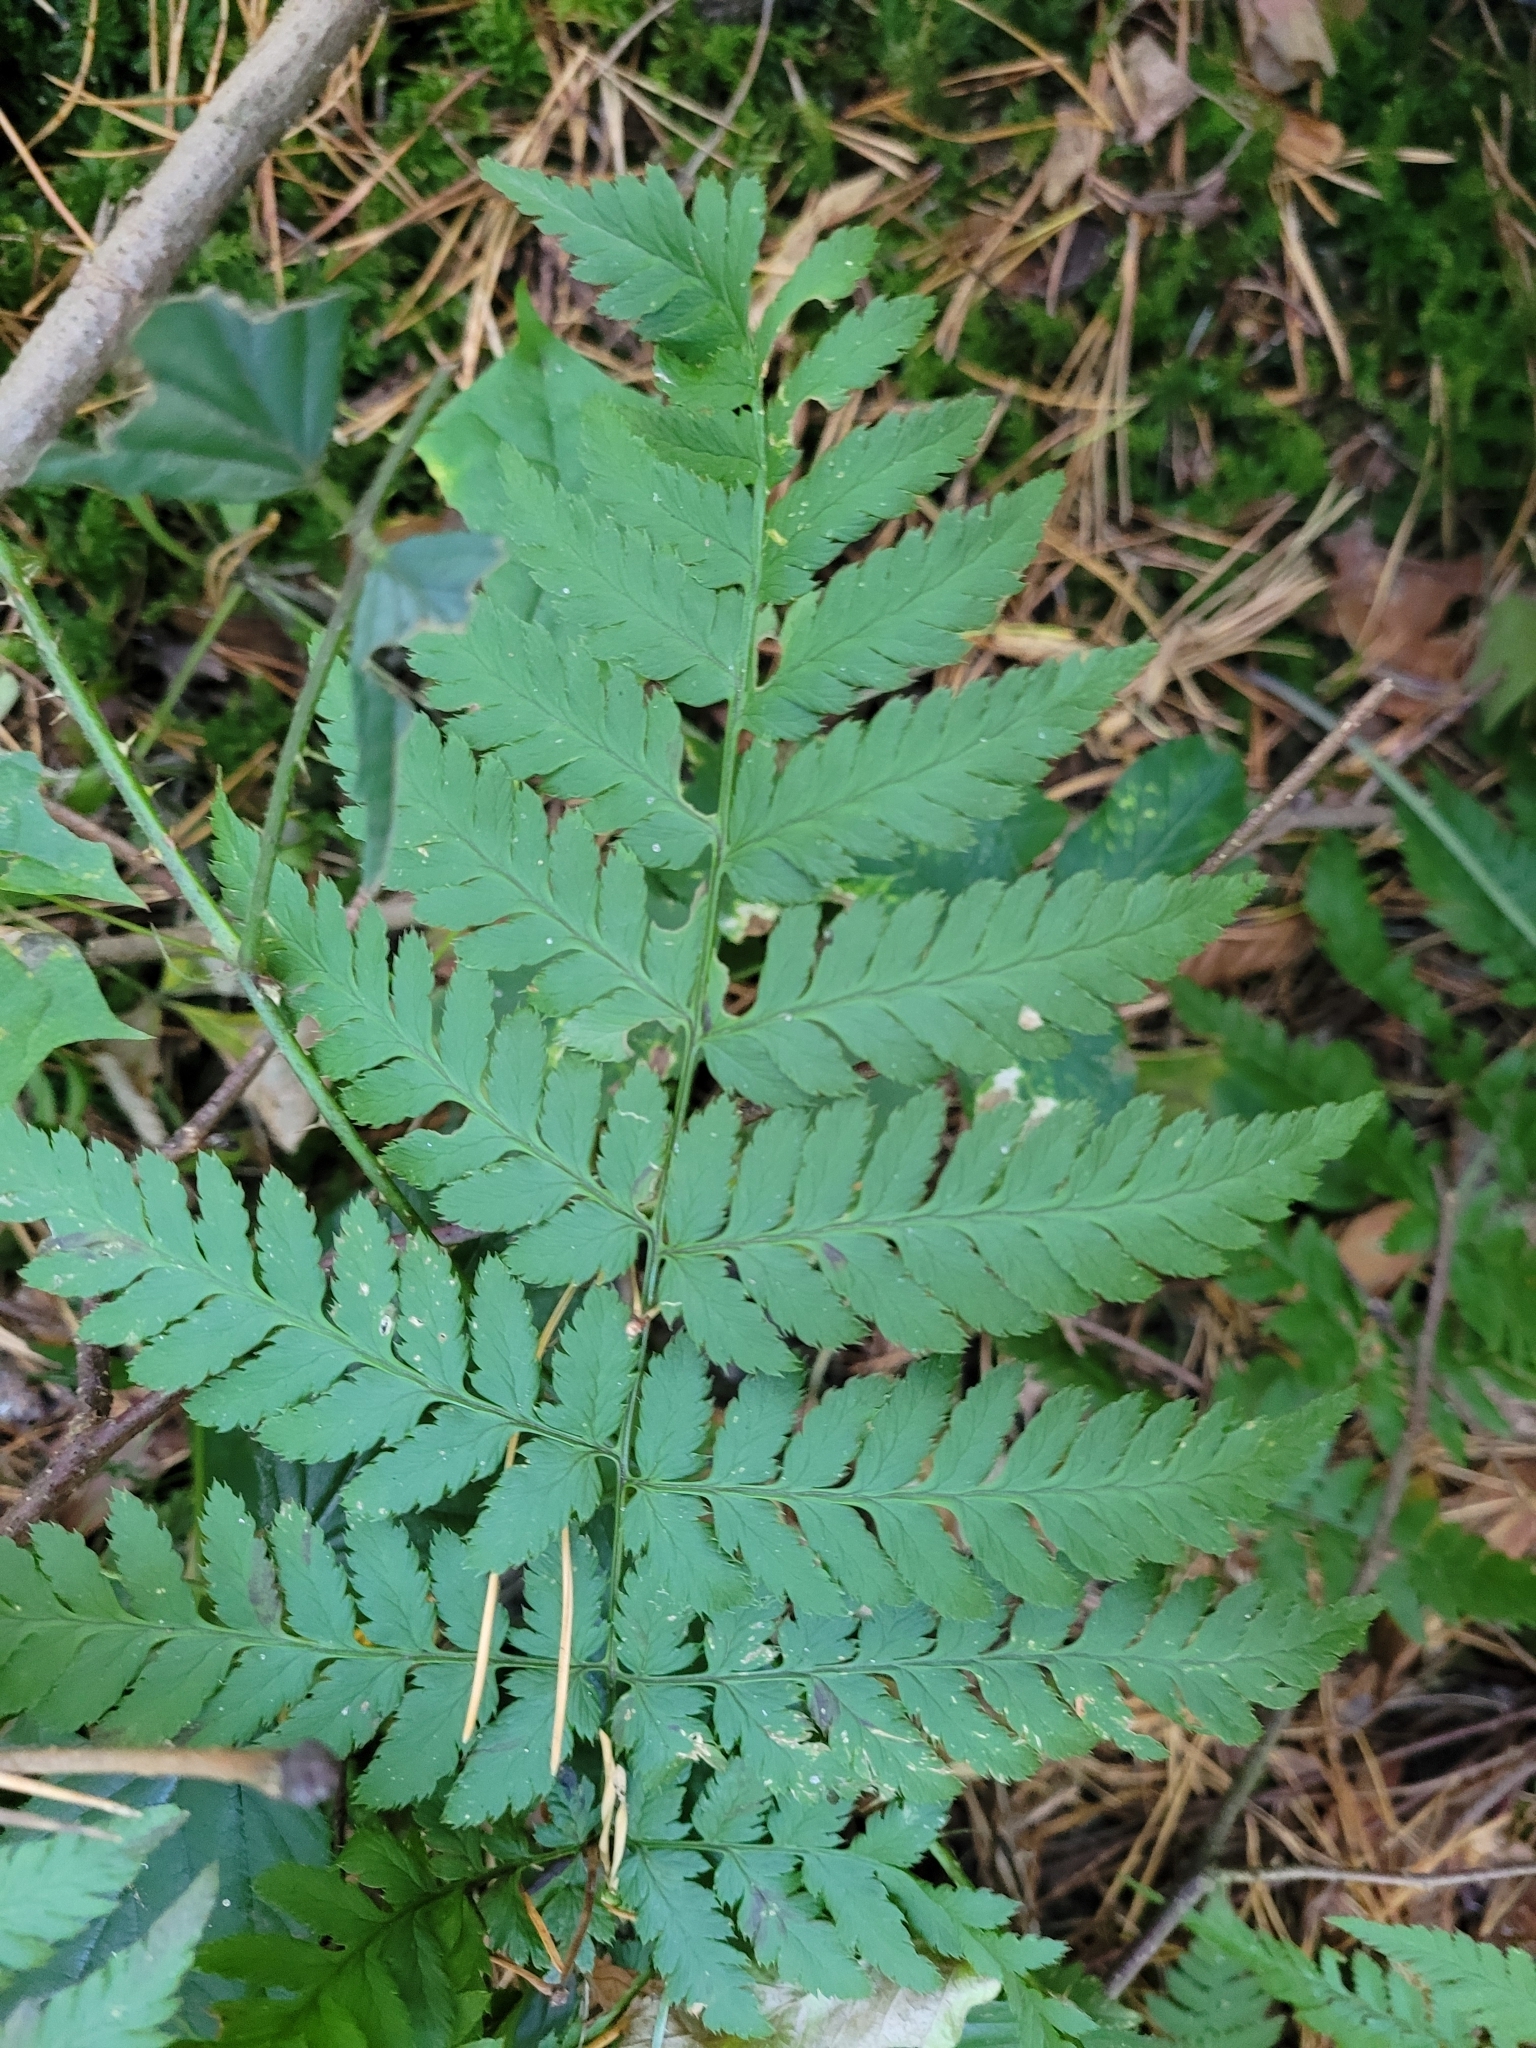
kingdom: Plantae
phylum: Tracheophyta
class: Polypodiopsida
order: Polypodiales
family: Dryopteridaceae
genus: Dryopteris
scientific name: Dryopteris carthusiana
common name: Narrow buckler-fern
